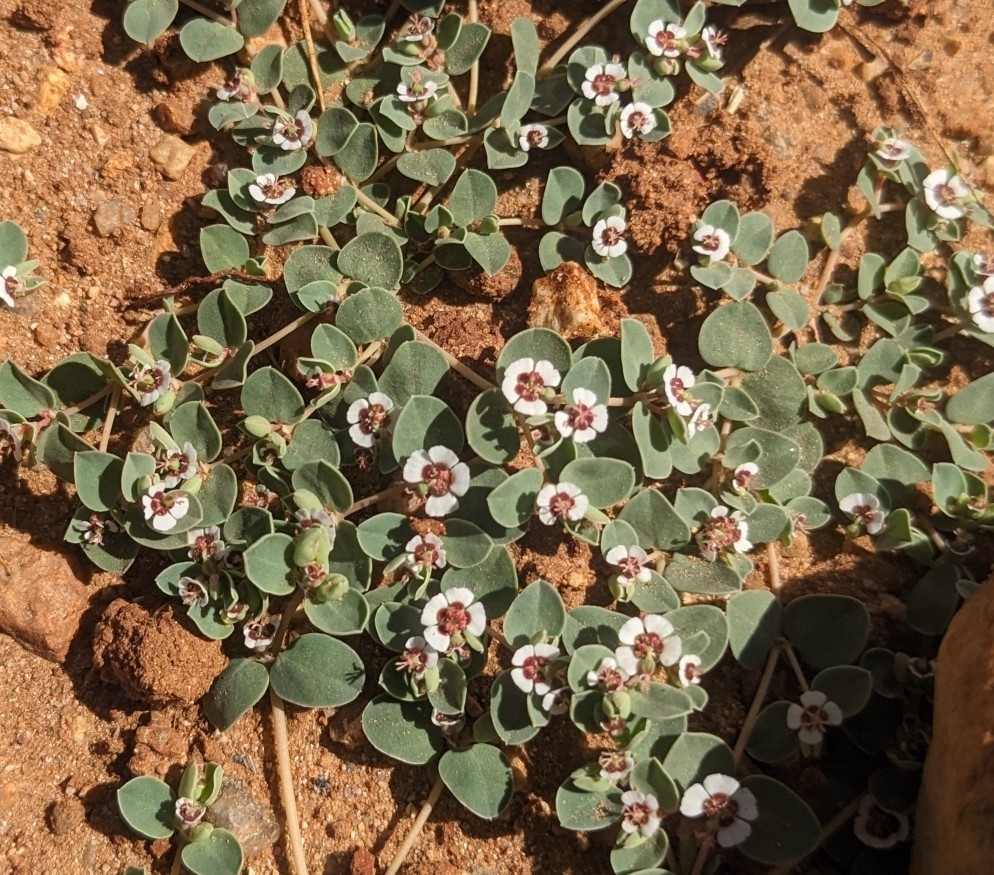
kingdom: Plantae
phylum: Tracheophyta
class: Magnoliopsida
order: Malpighiales
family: Euphorbiaceae
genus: Euphorbia
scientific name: Euphorbia albomarginata
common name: Whitemargin sandmat
